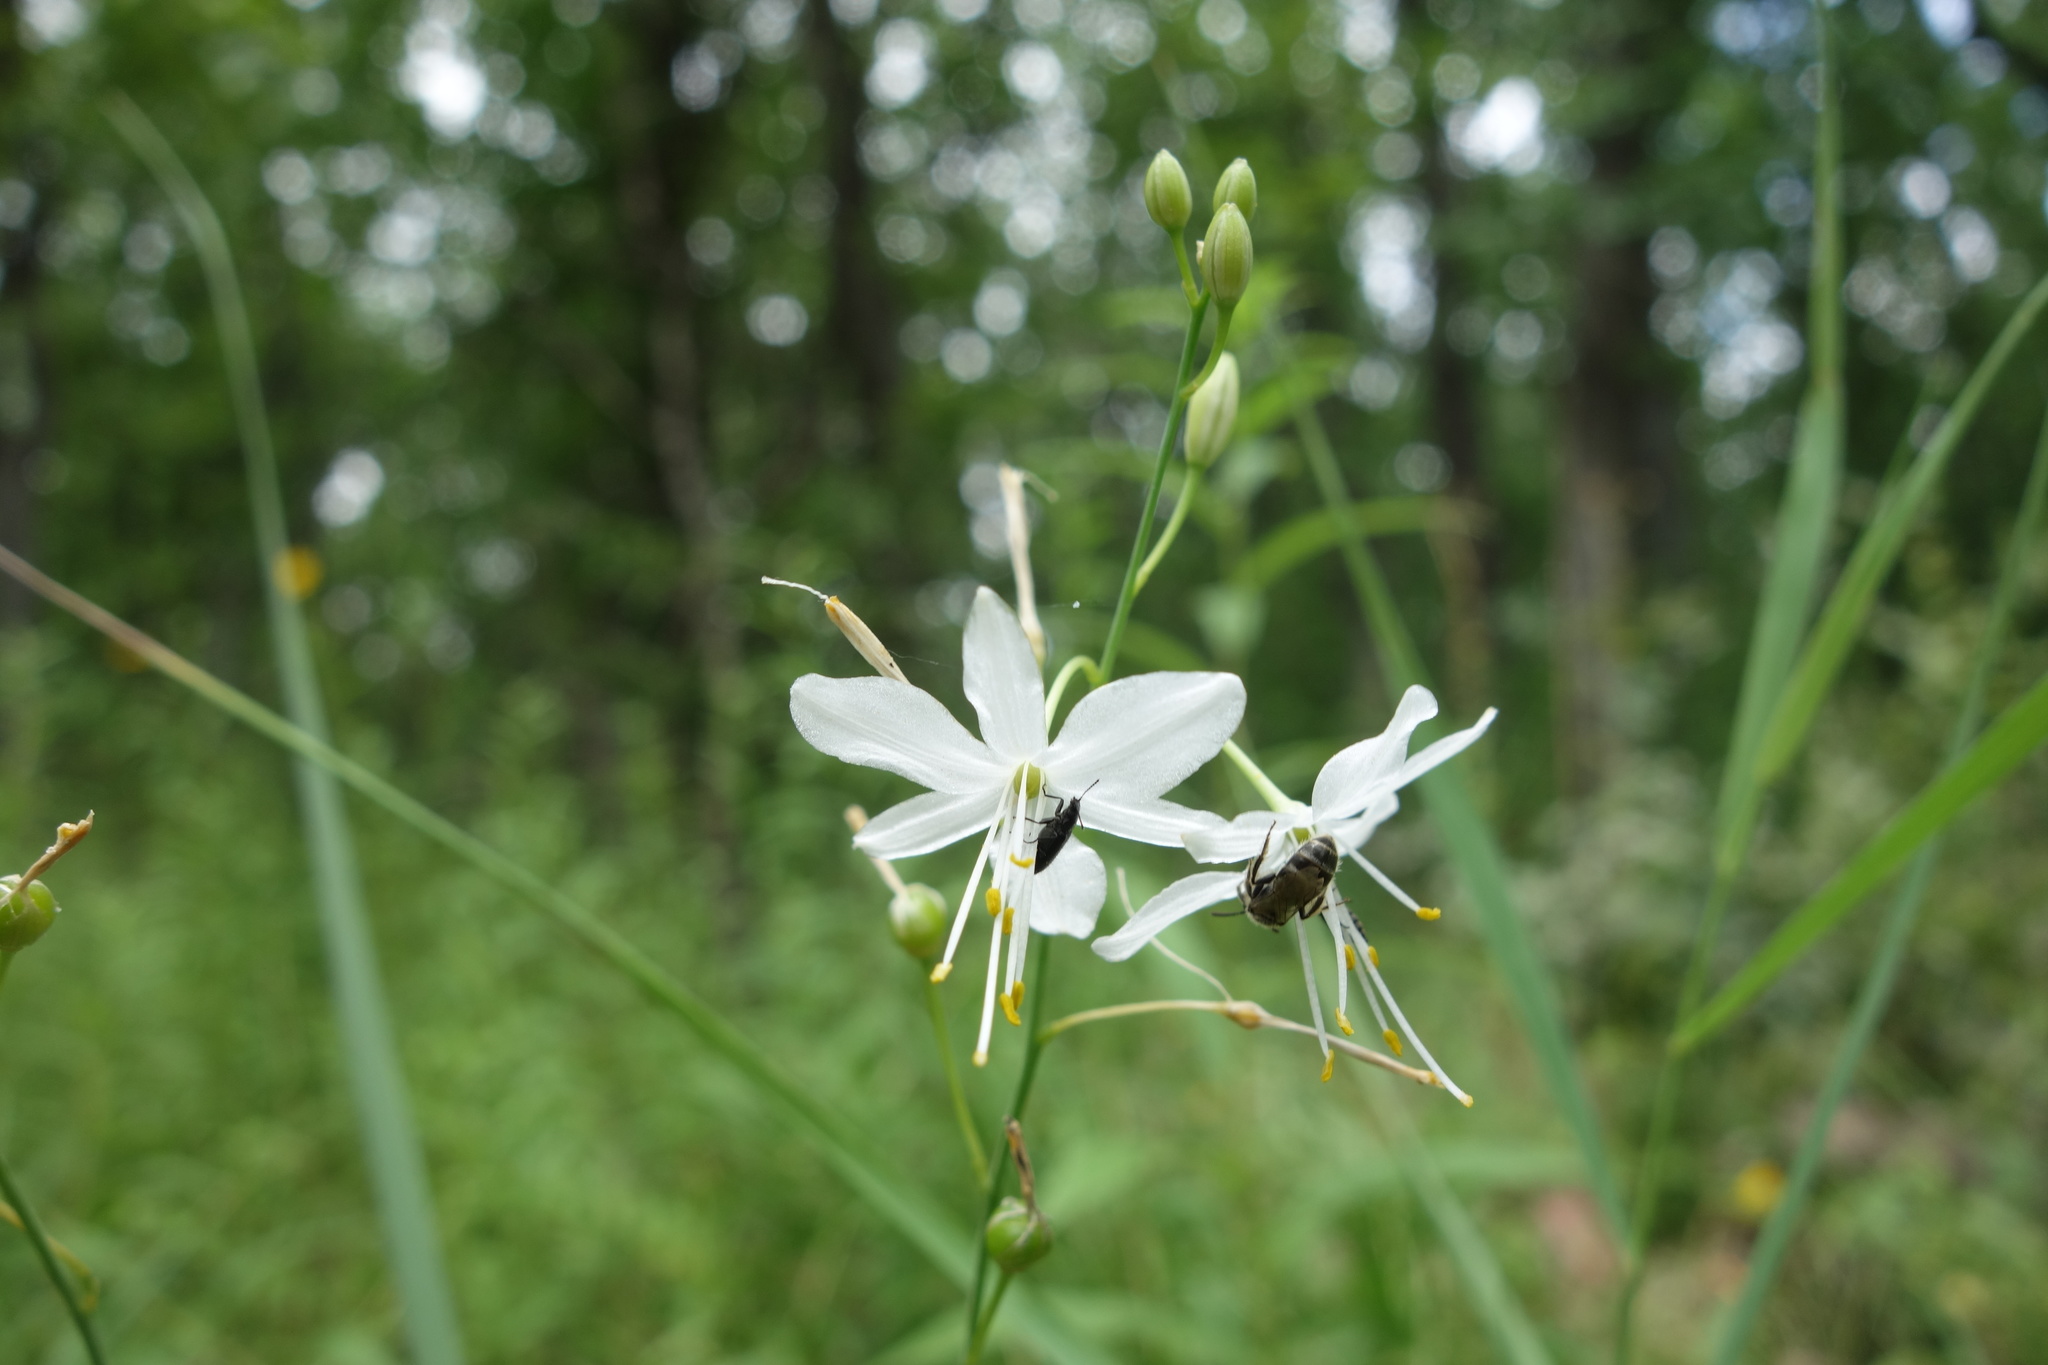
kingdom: Plantae
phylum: Tracheophyta
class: Liliopsida
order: Asparagales
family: Asparagaceae
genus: Anthericum
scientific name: Anthericum ramosum
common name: Branched st. bernard's-lily
